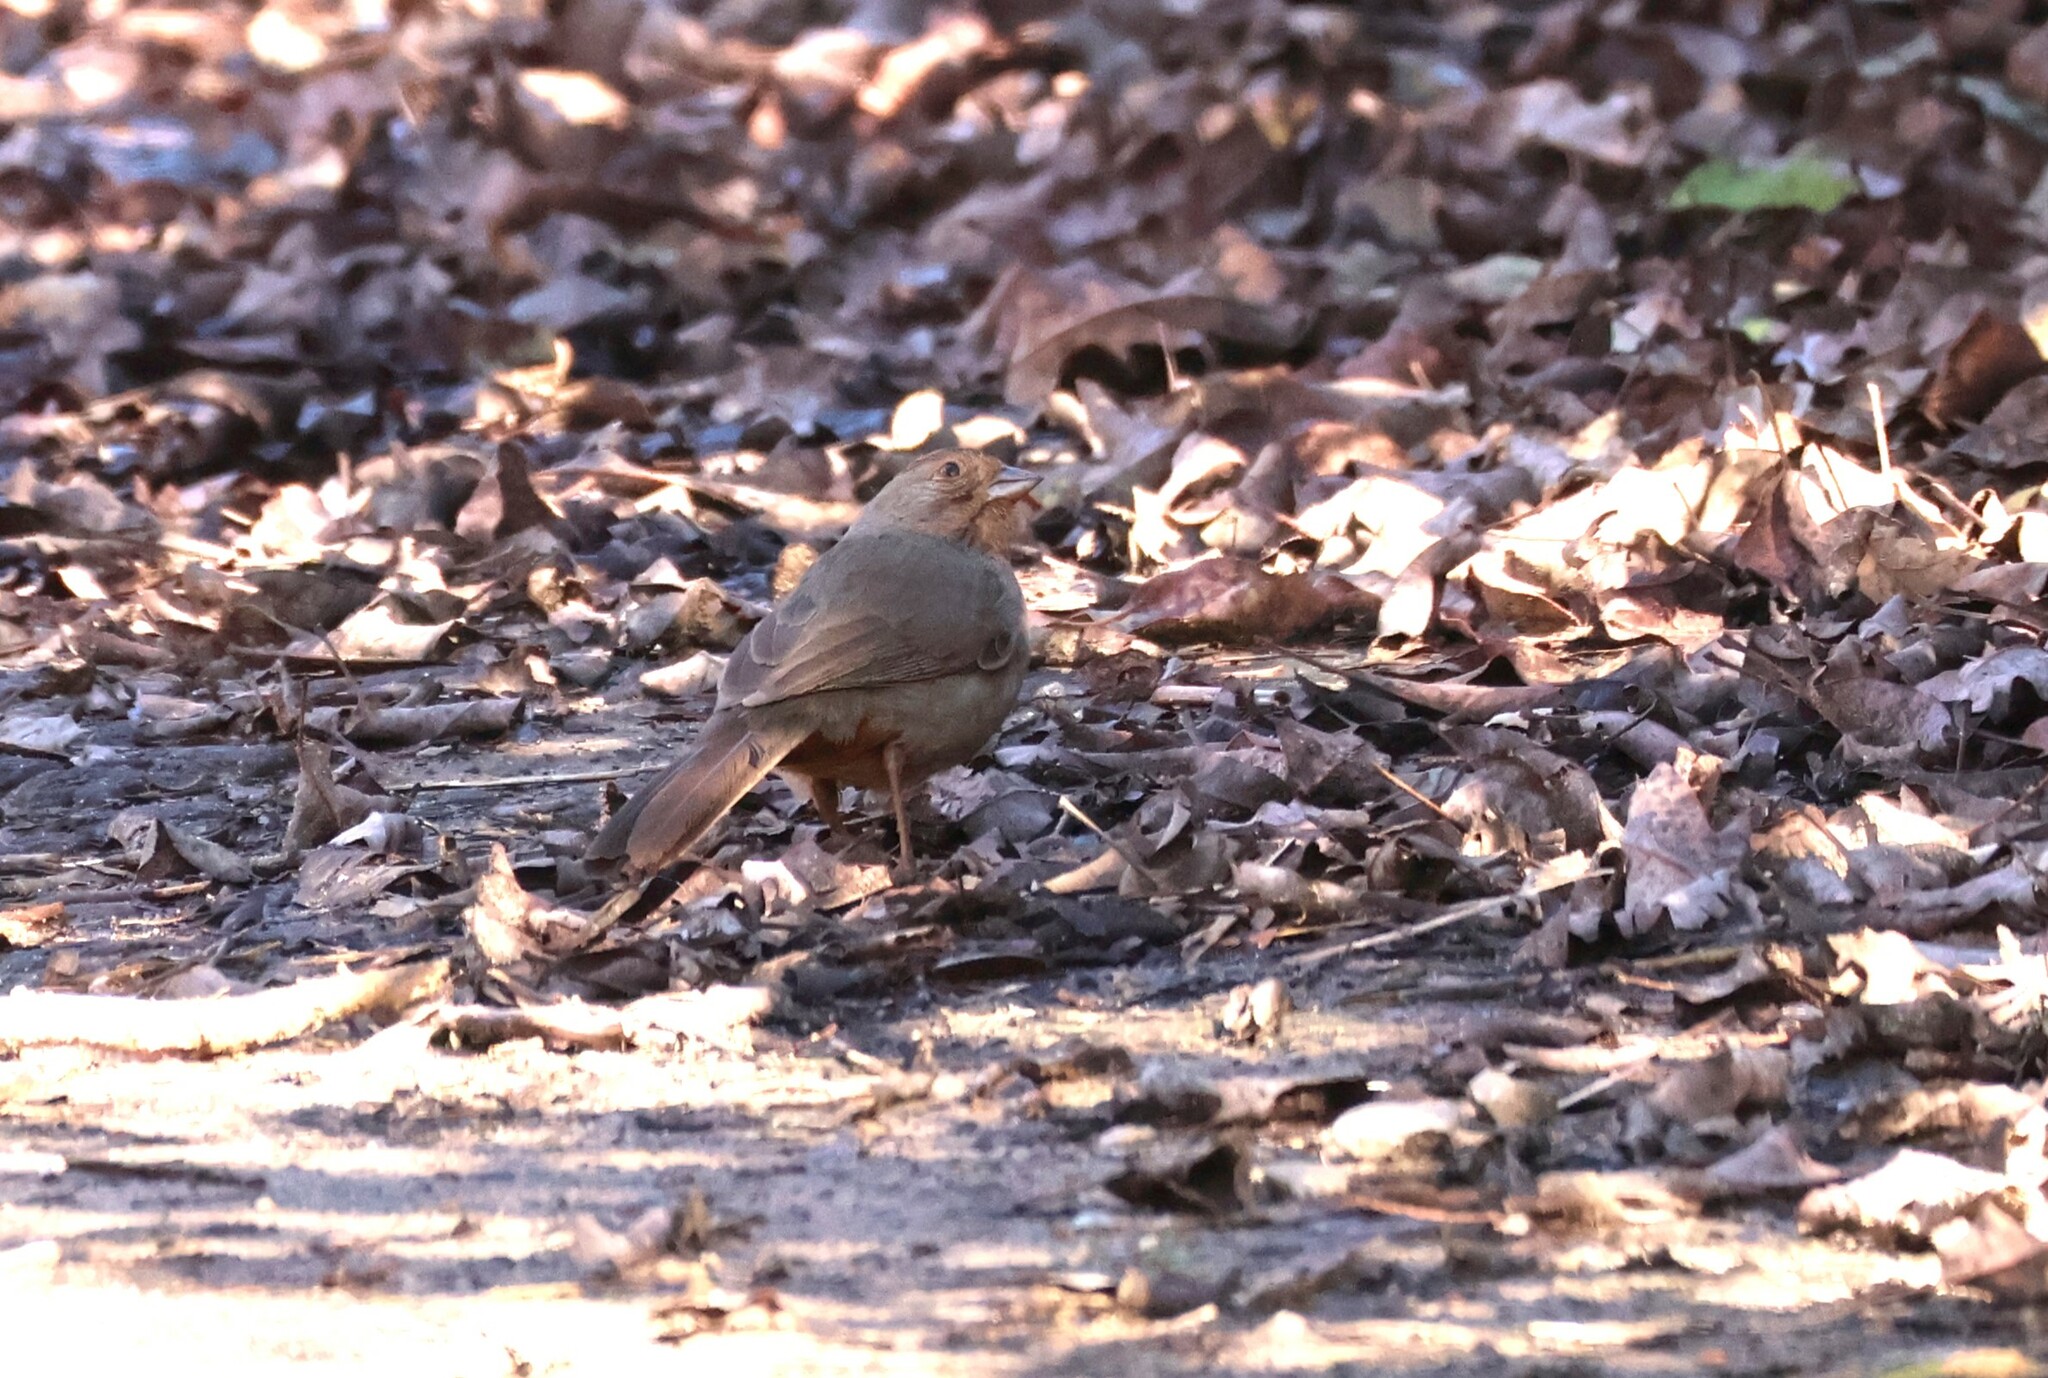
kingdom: Animalia
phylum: Chordata
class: Aves
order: Passeriformes
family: Passerellidae
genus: Melozone
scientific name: Melozone crissalis
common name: California towhee
